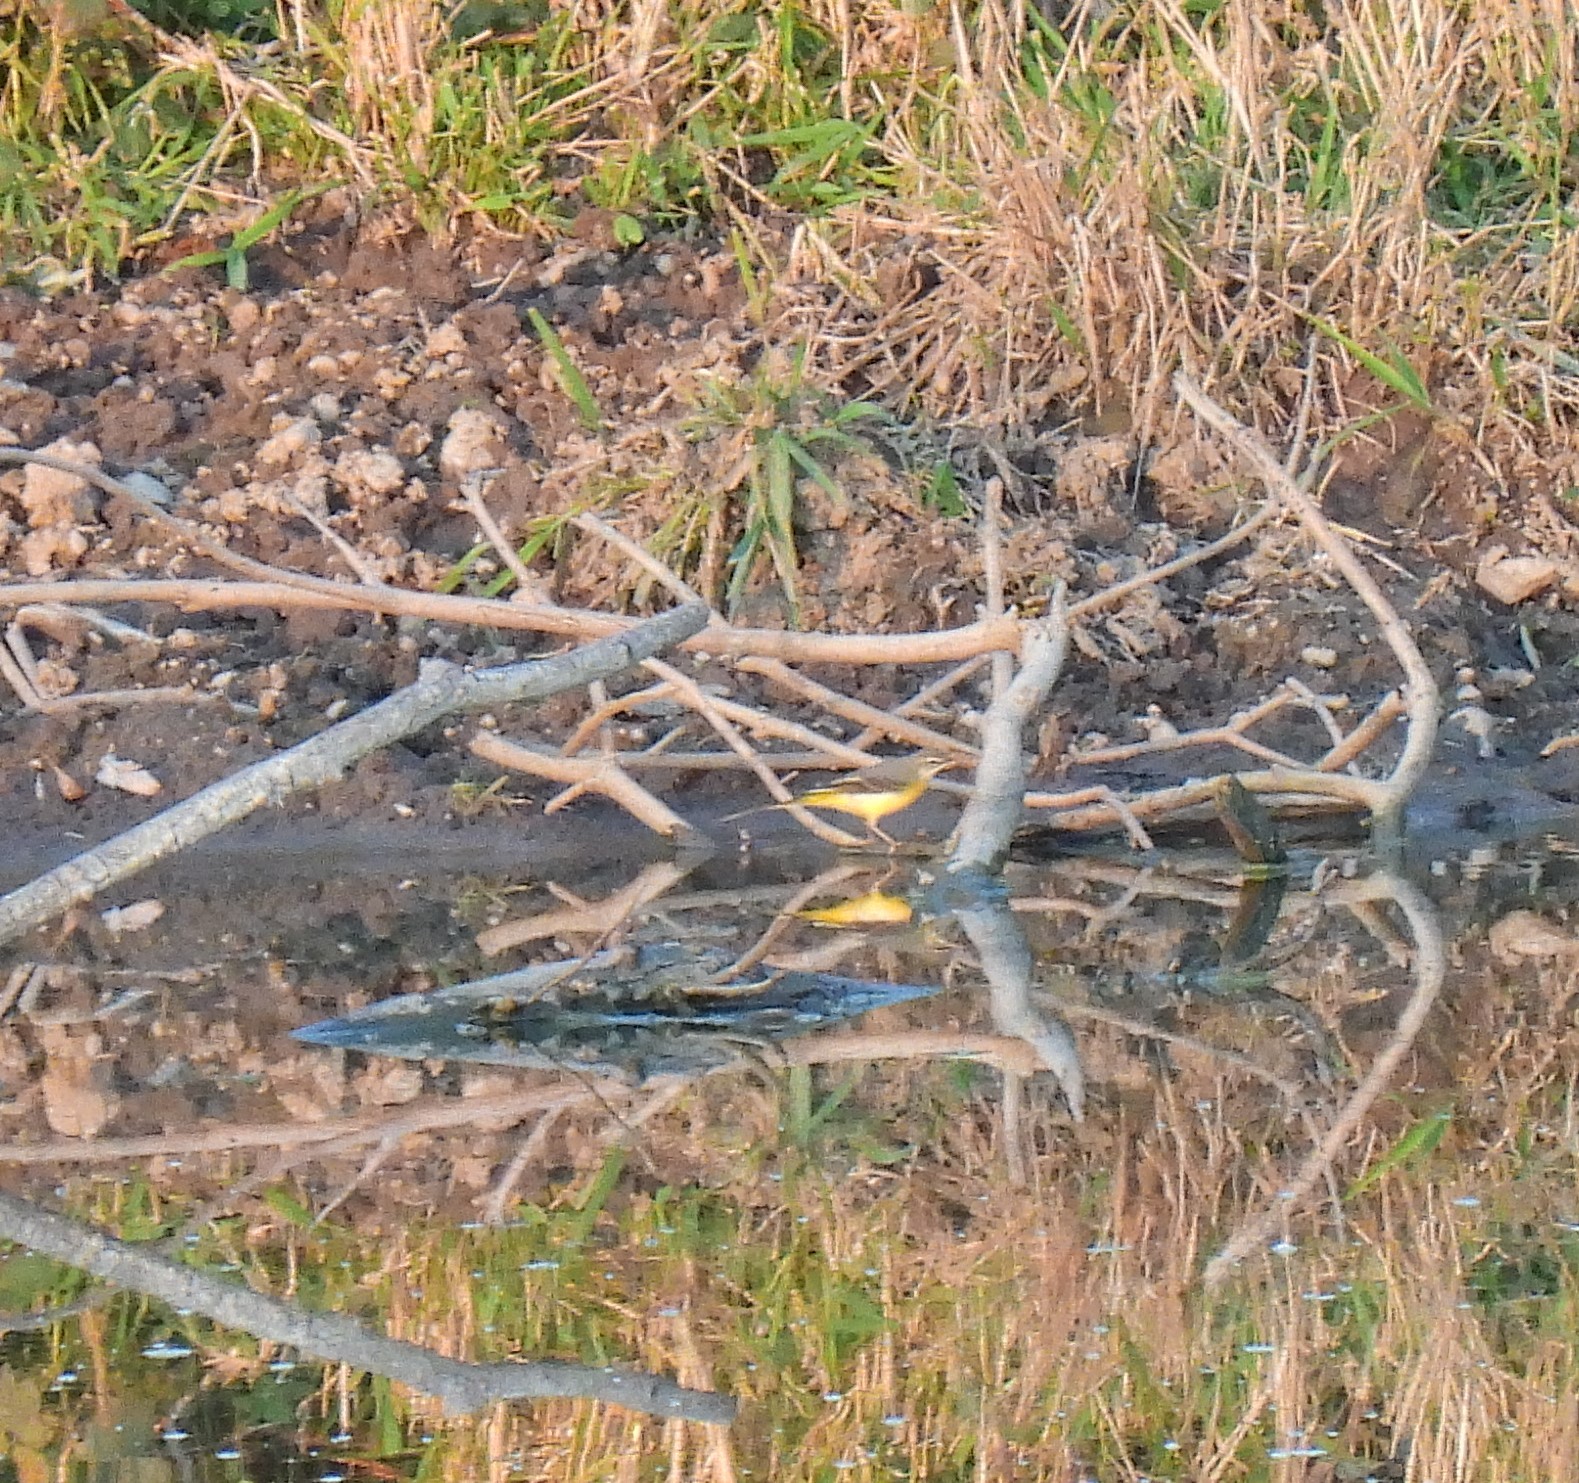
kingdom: Animalia
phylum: Chordata
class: Aves
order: Passeriformes
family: Motacillidae
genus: Motacilla
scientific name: Motacilla cinerea
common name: Grey wagtail
